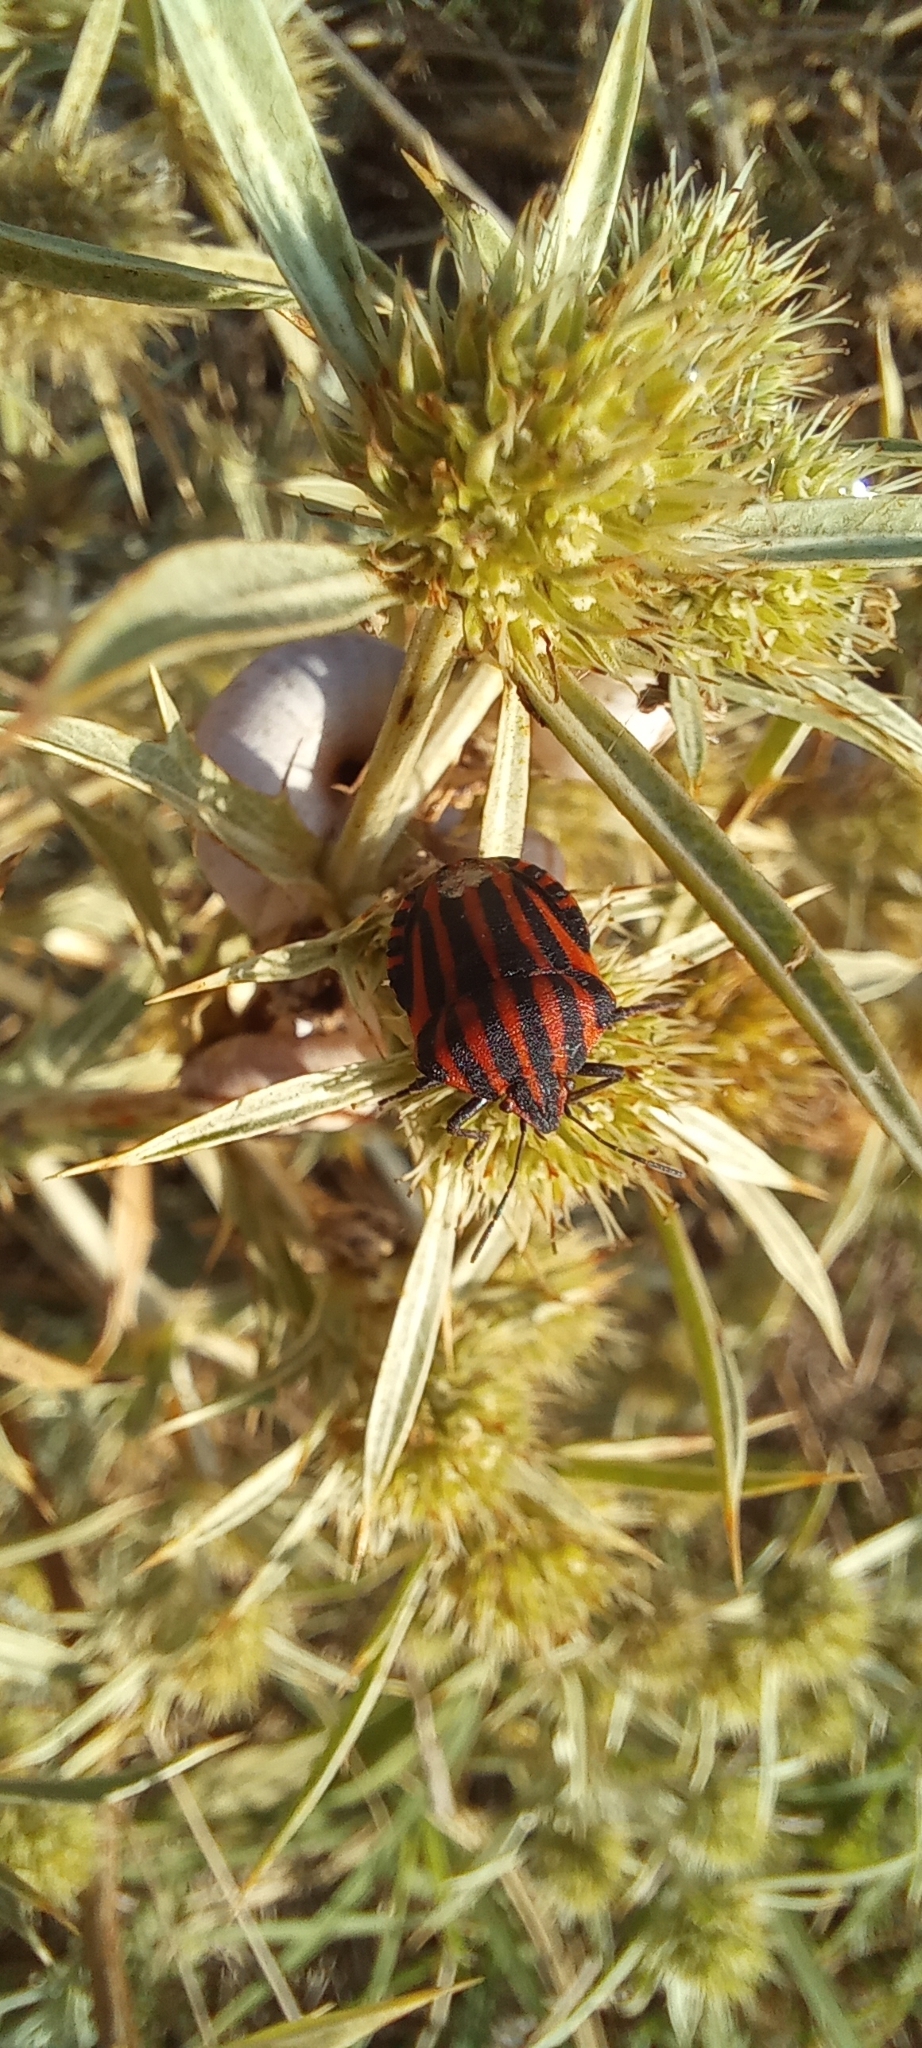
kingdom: Animalia
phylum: Arthropoda
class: Insecta
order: Hemiptera
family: Pentatomidae
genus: Graphosoma
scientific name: Graphosoma italicum
